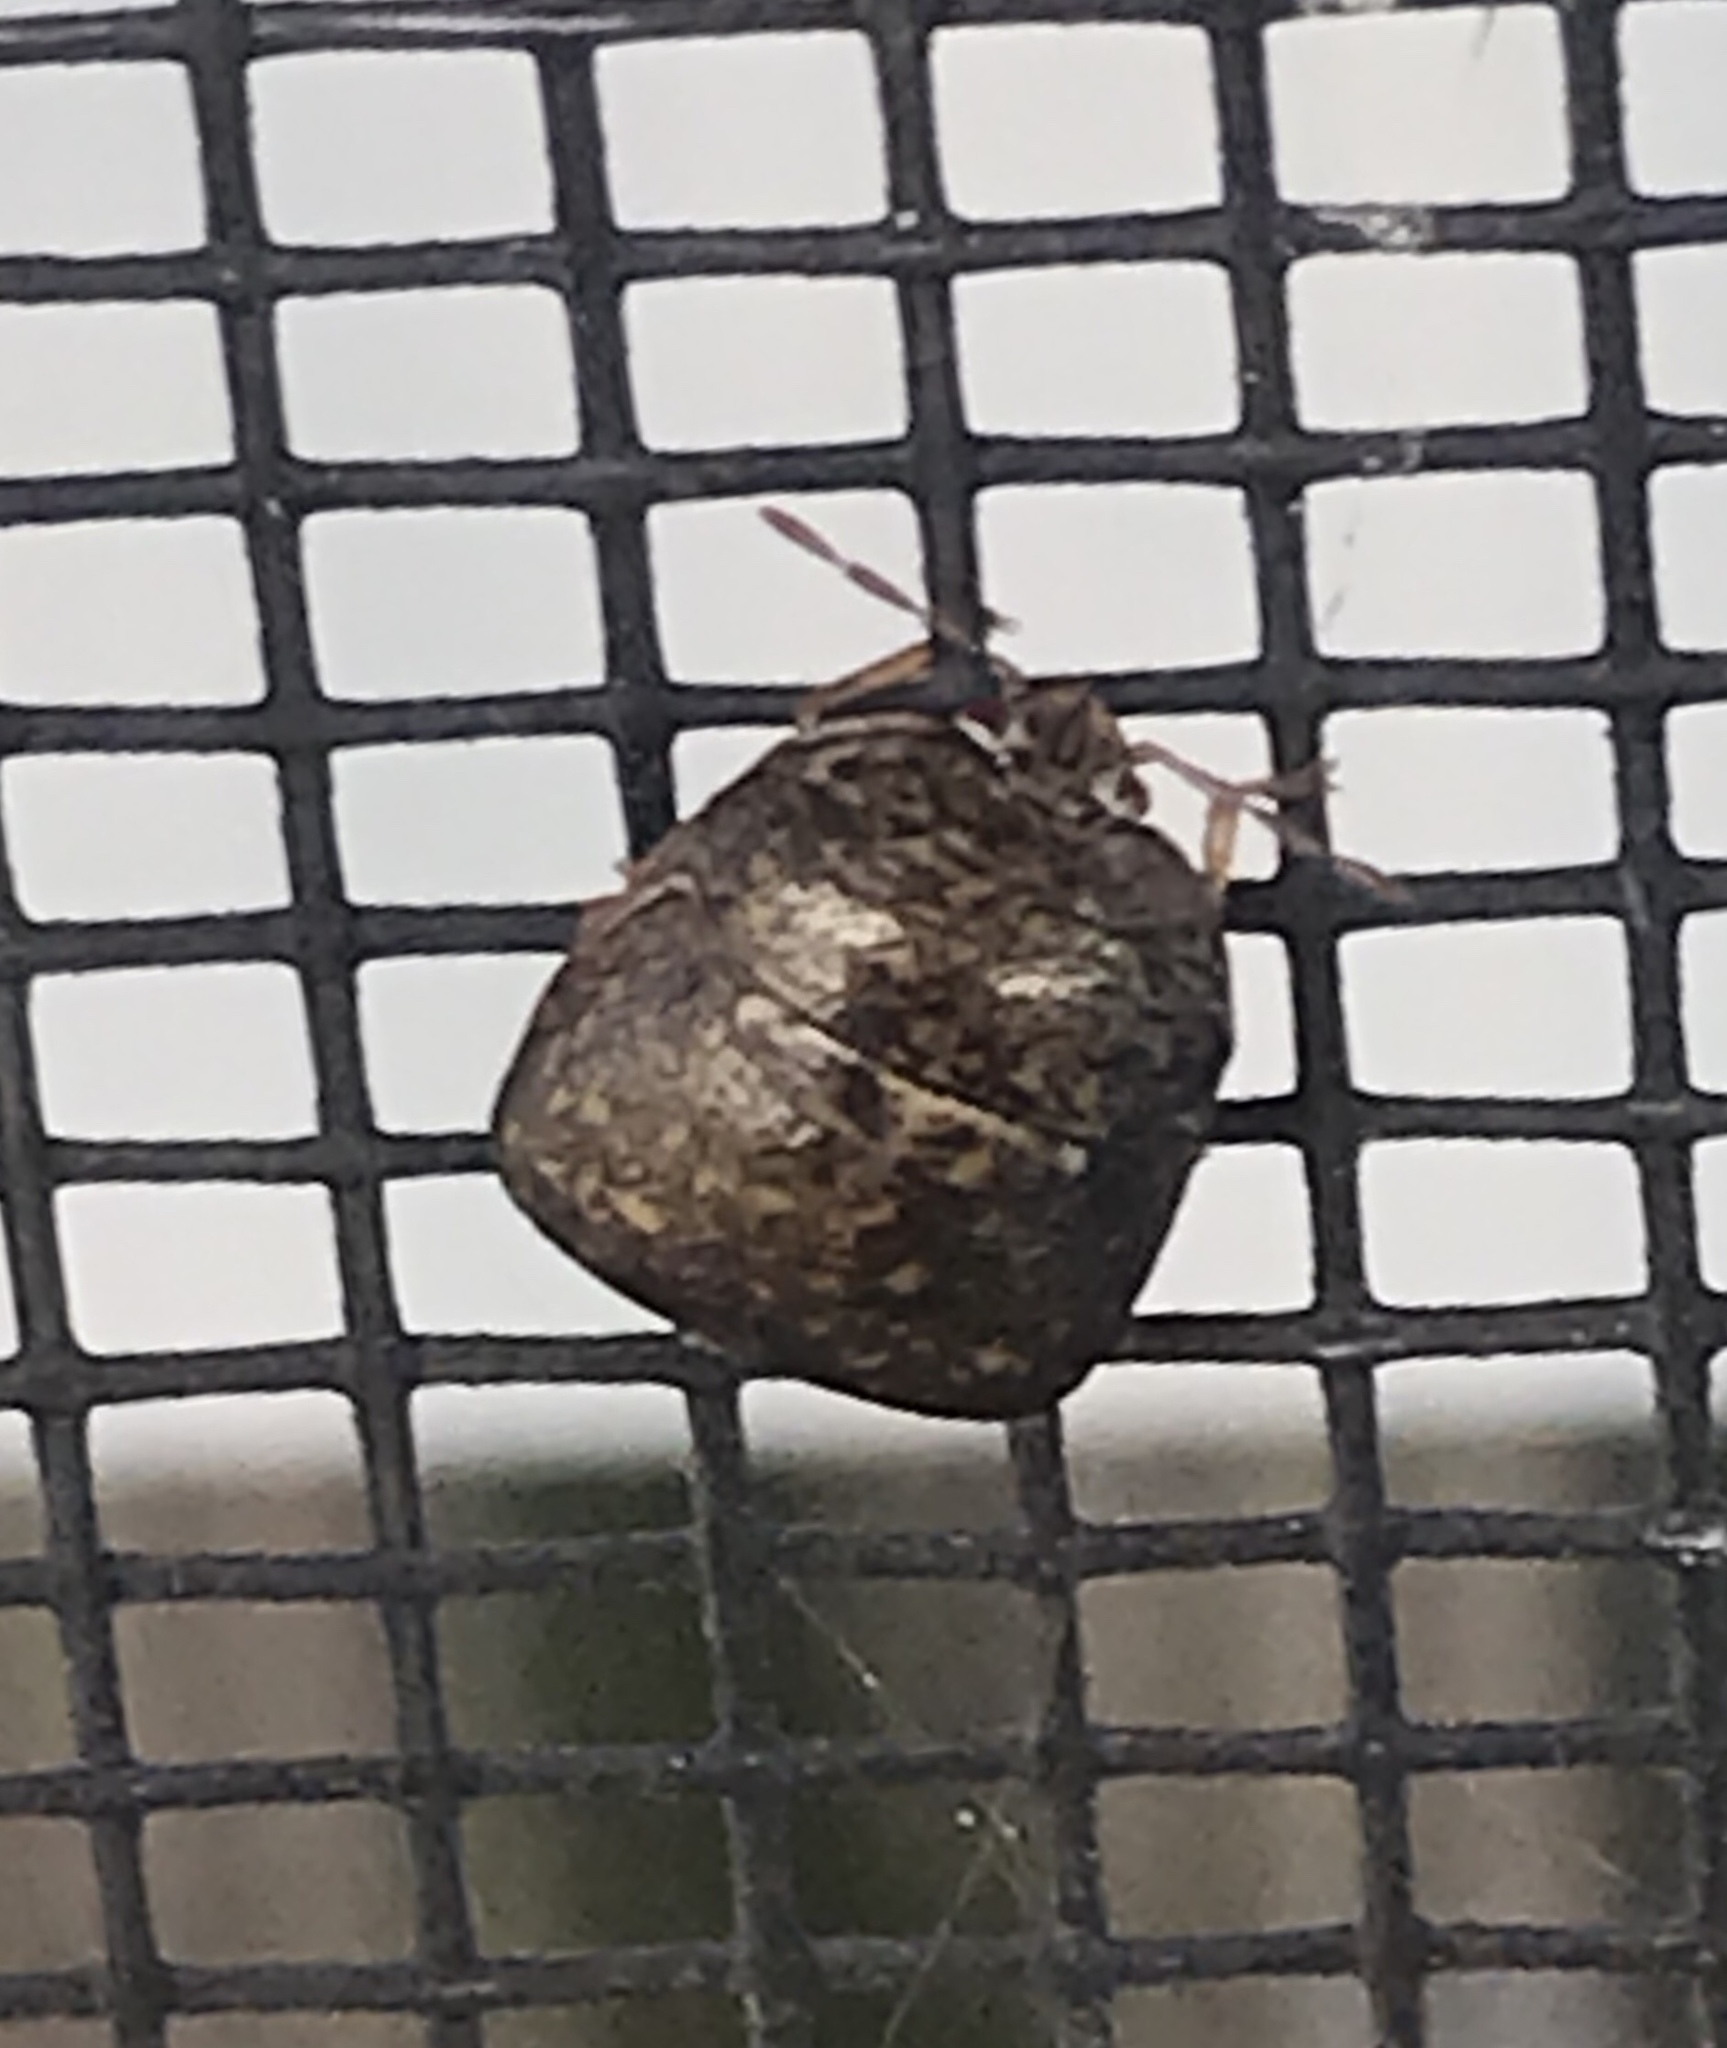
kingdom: Animalia
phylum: Arthropoda
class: Insecta
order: Hemiptera
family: Plataspidae
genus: Megacopta
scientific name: Megacopta cribraria
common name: Bean plataspid
